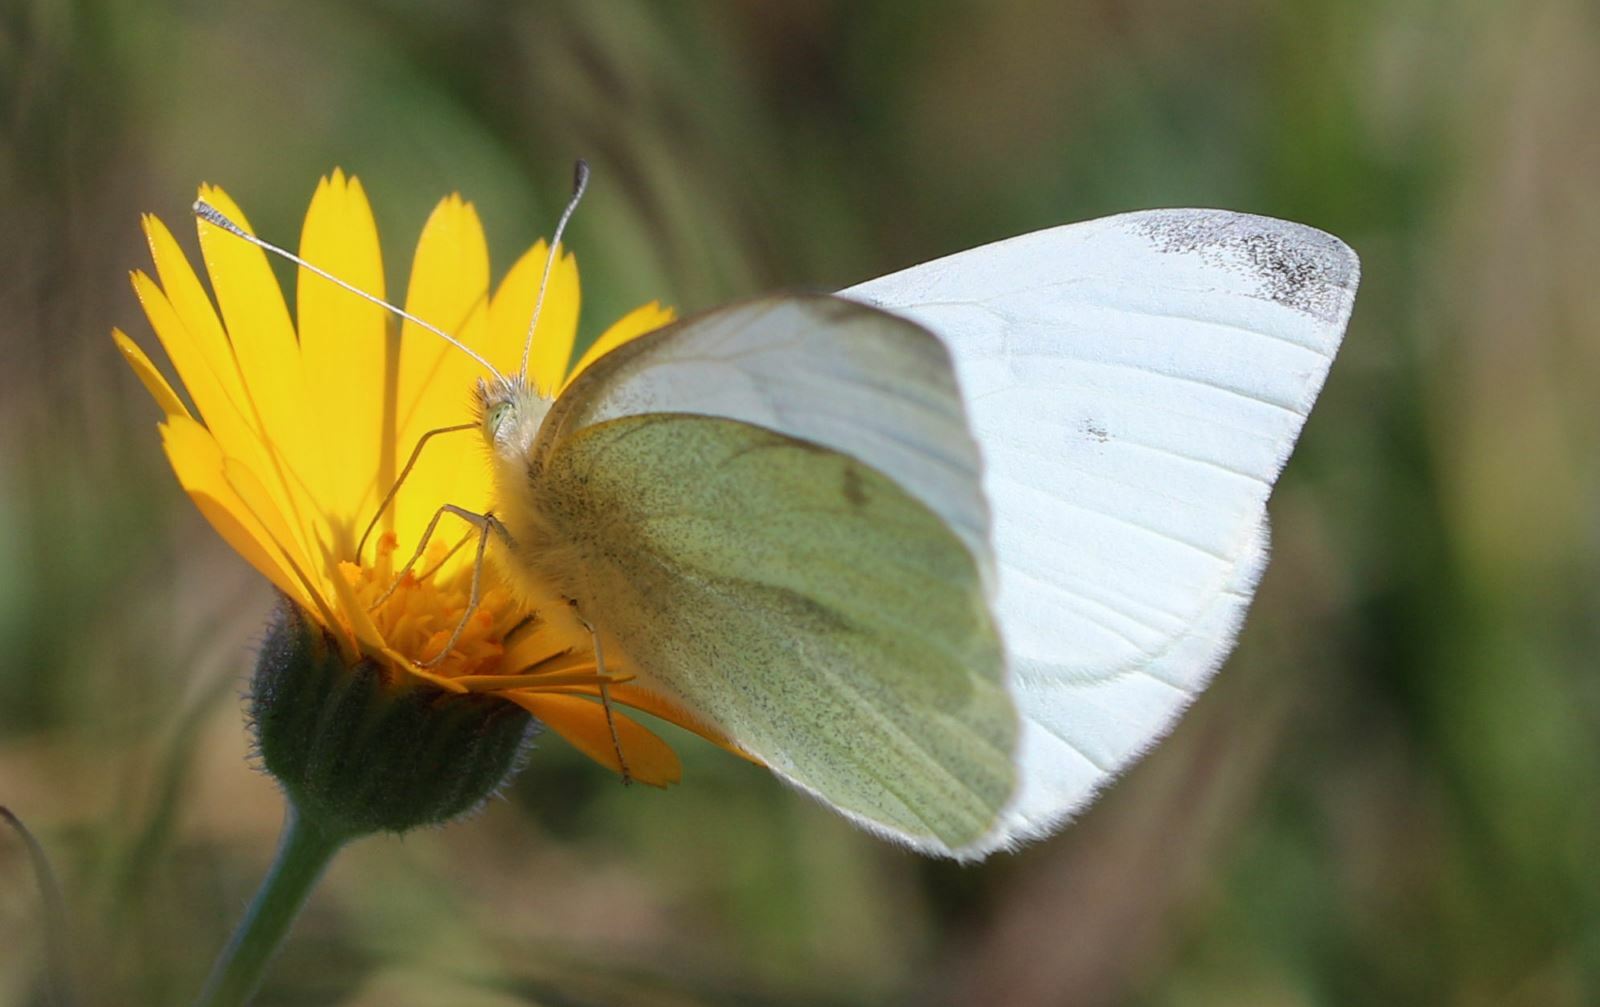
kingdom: Animalia
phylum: Arthropoda
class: Insecta
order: Lepidoptera
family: Pieridae
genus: Pieris
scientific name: Pieris rapae
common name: Small white
